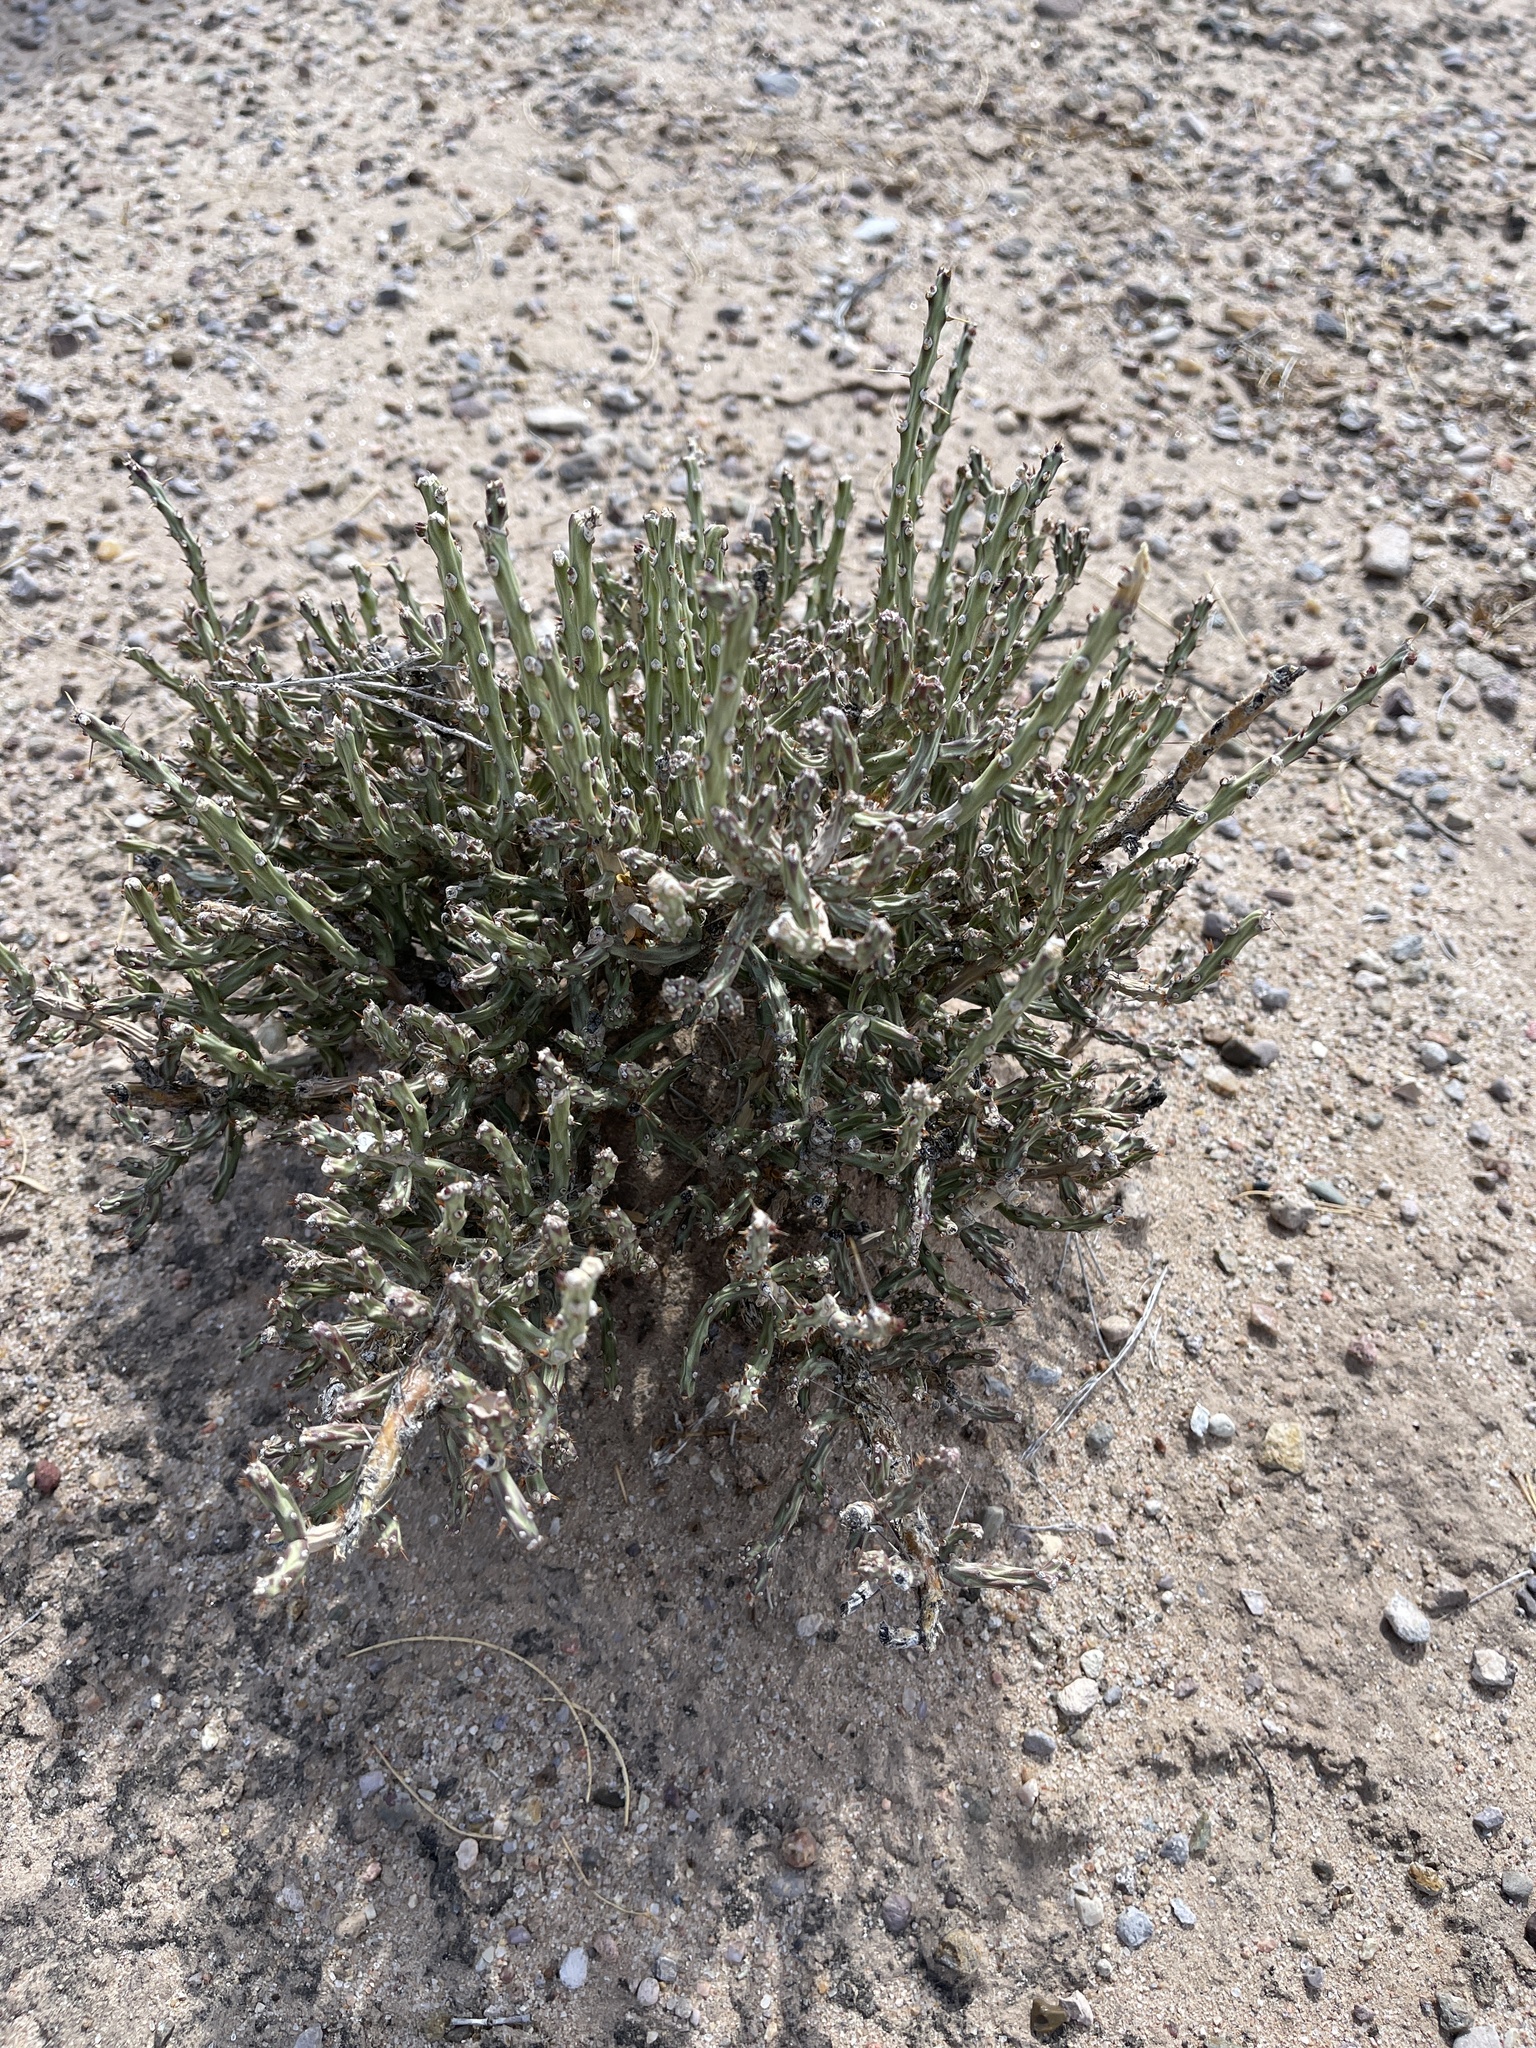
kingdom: Plantae
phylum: Tracheophyta
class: Magnoliopsida
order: Caryophyllales
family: Cactaceae
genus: Cylindropuntia
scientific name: Cylindropuntia leptocaulis
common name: Christmas cactus
